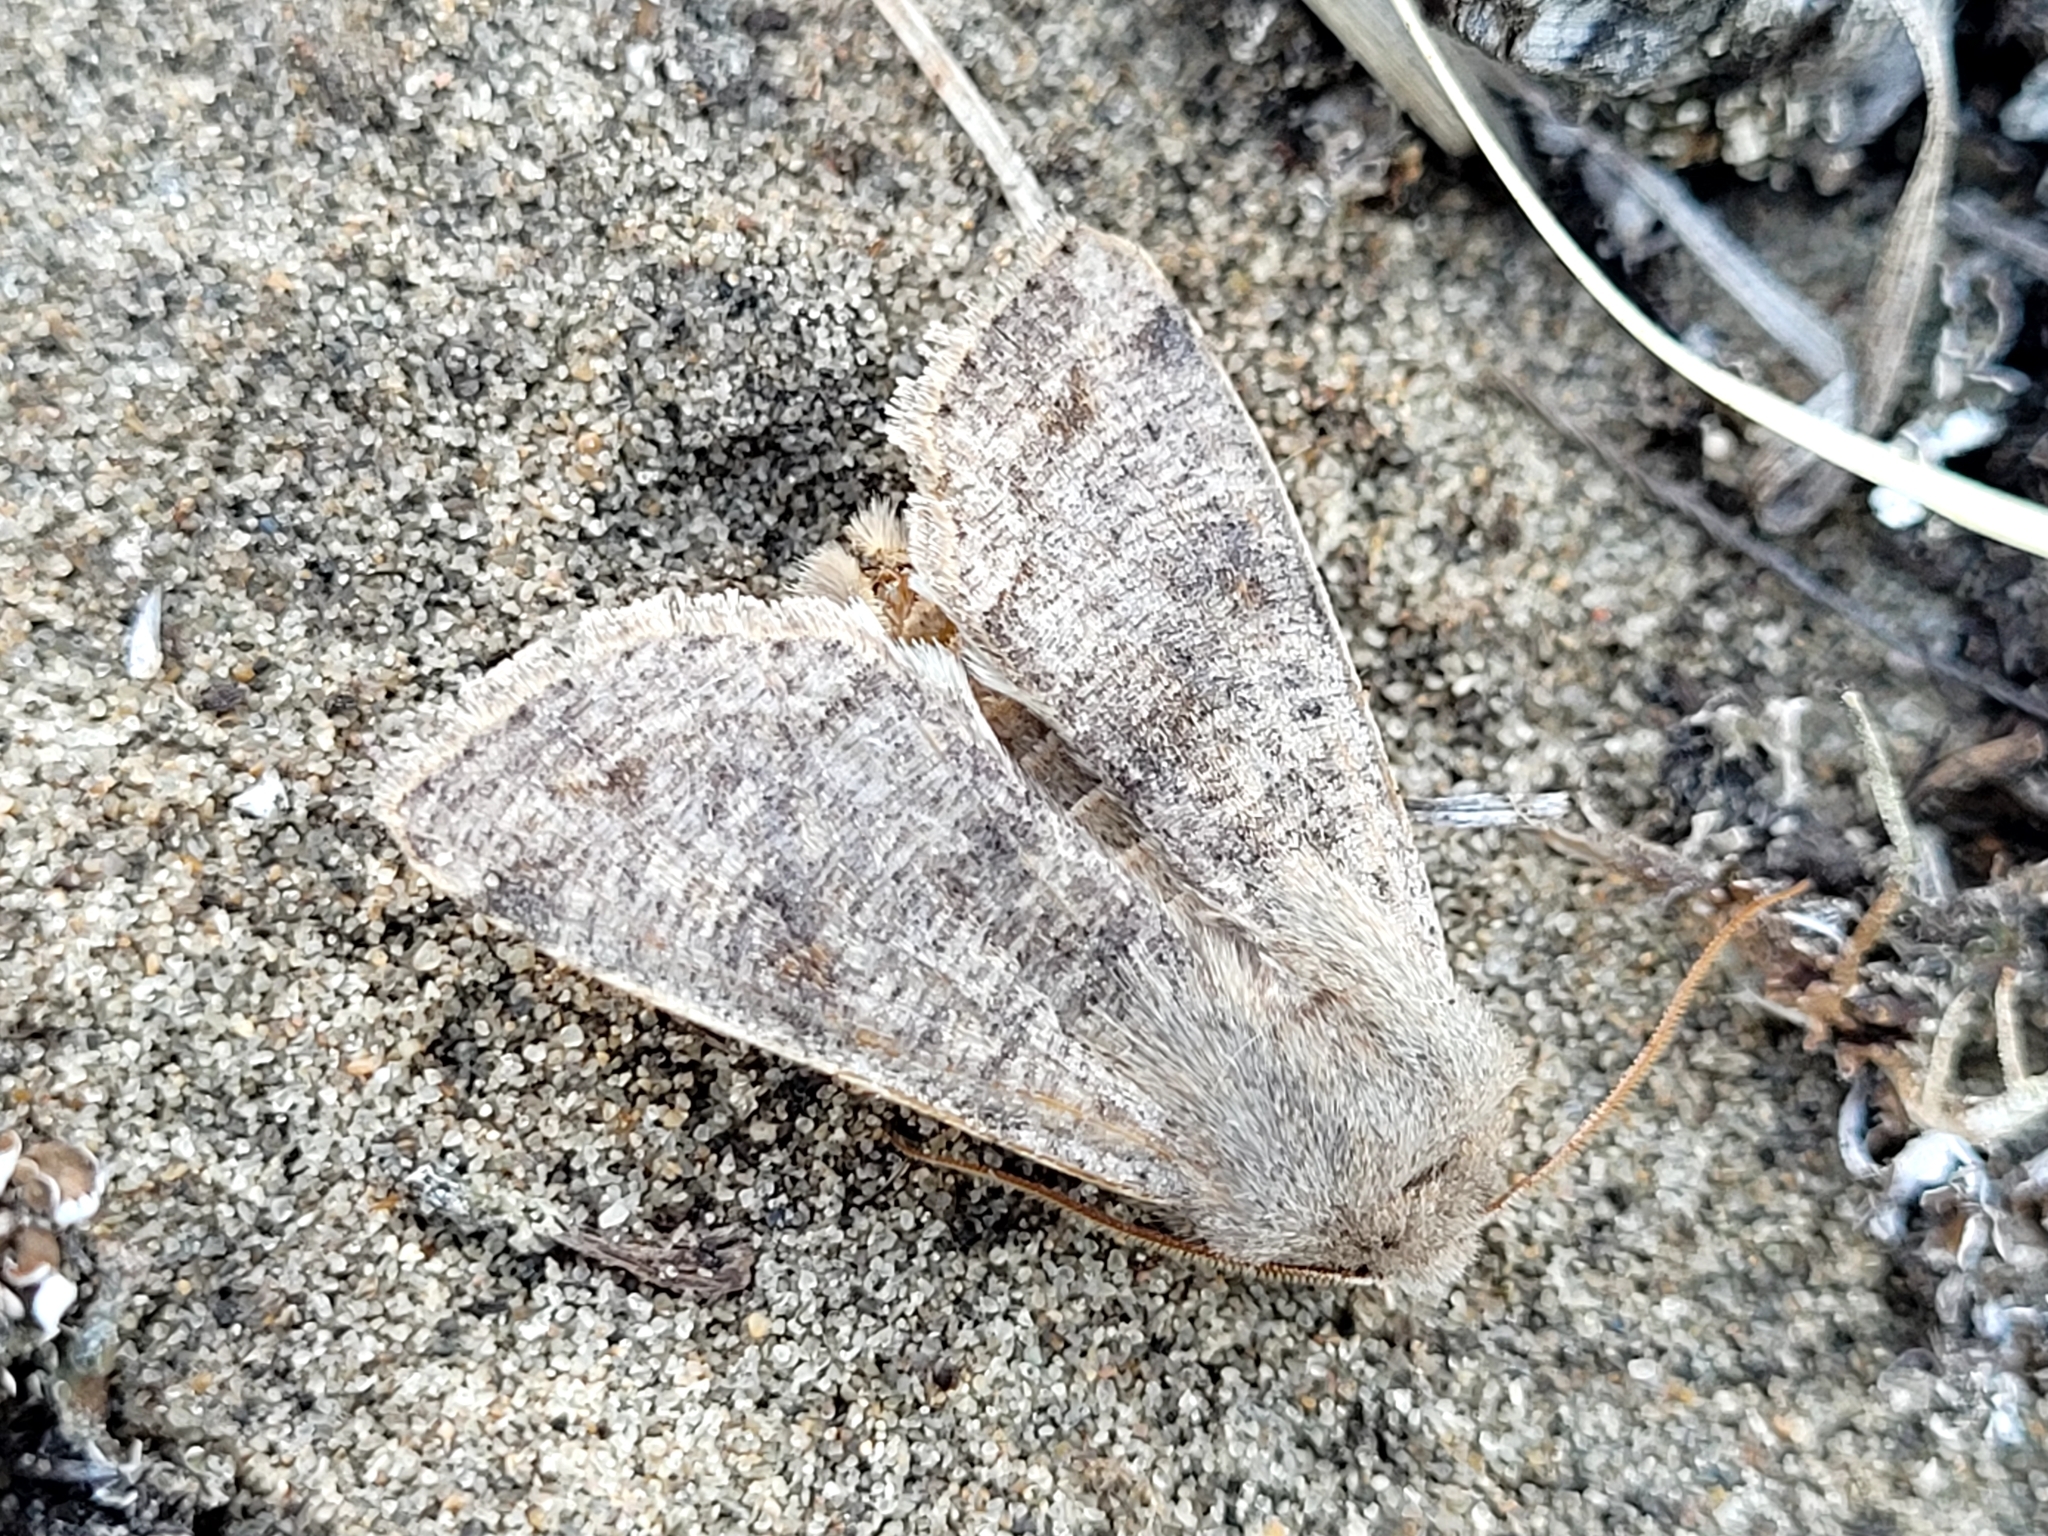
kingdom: Animalia
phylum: Arthropoda
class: Insecta
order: Lepidoptera
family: Noctuidae
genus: Orthosia
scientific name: Orthosia hibisci
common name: Green fruitworm
